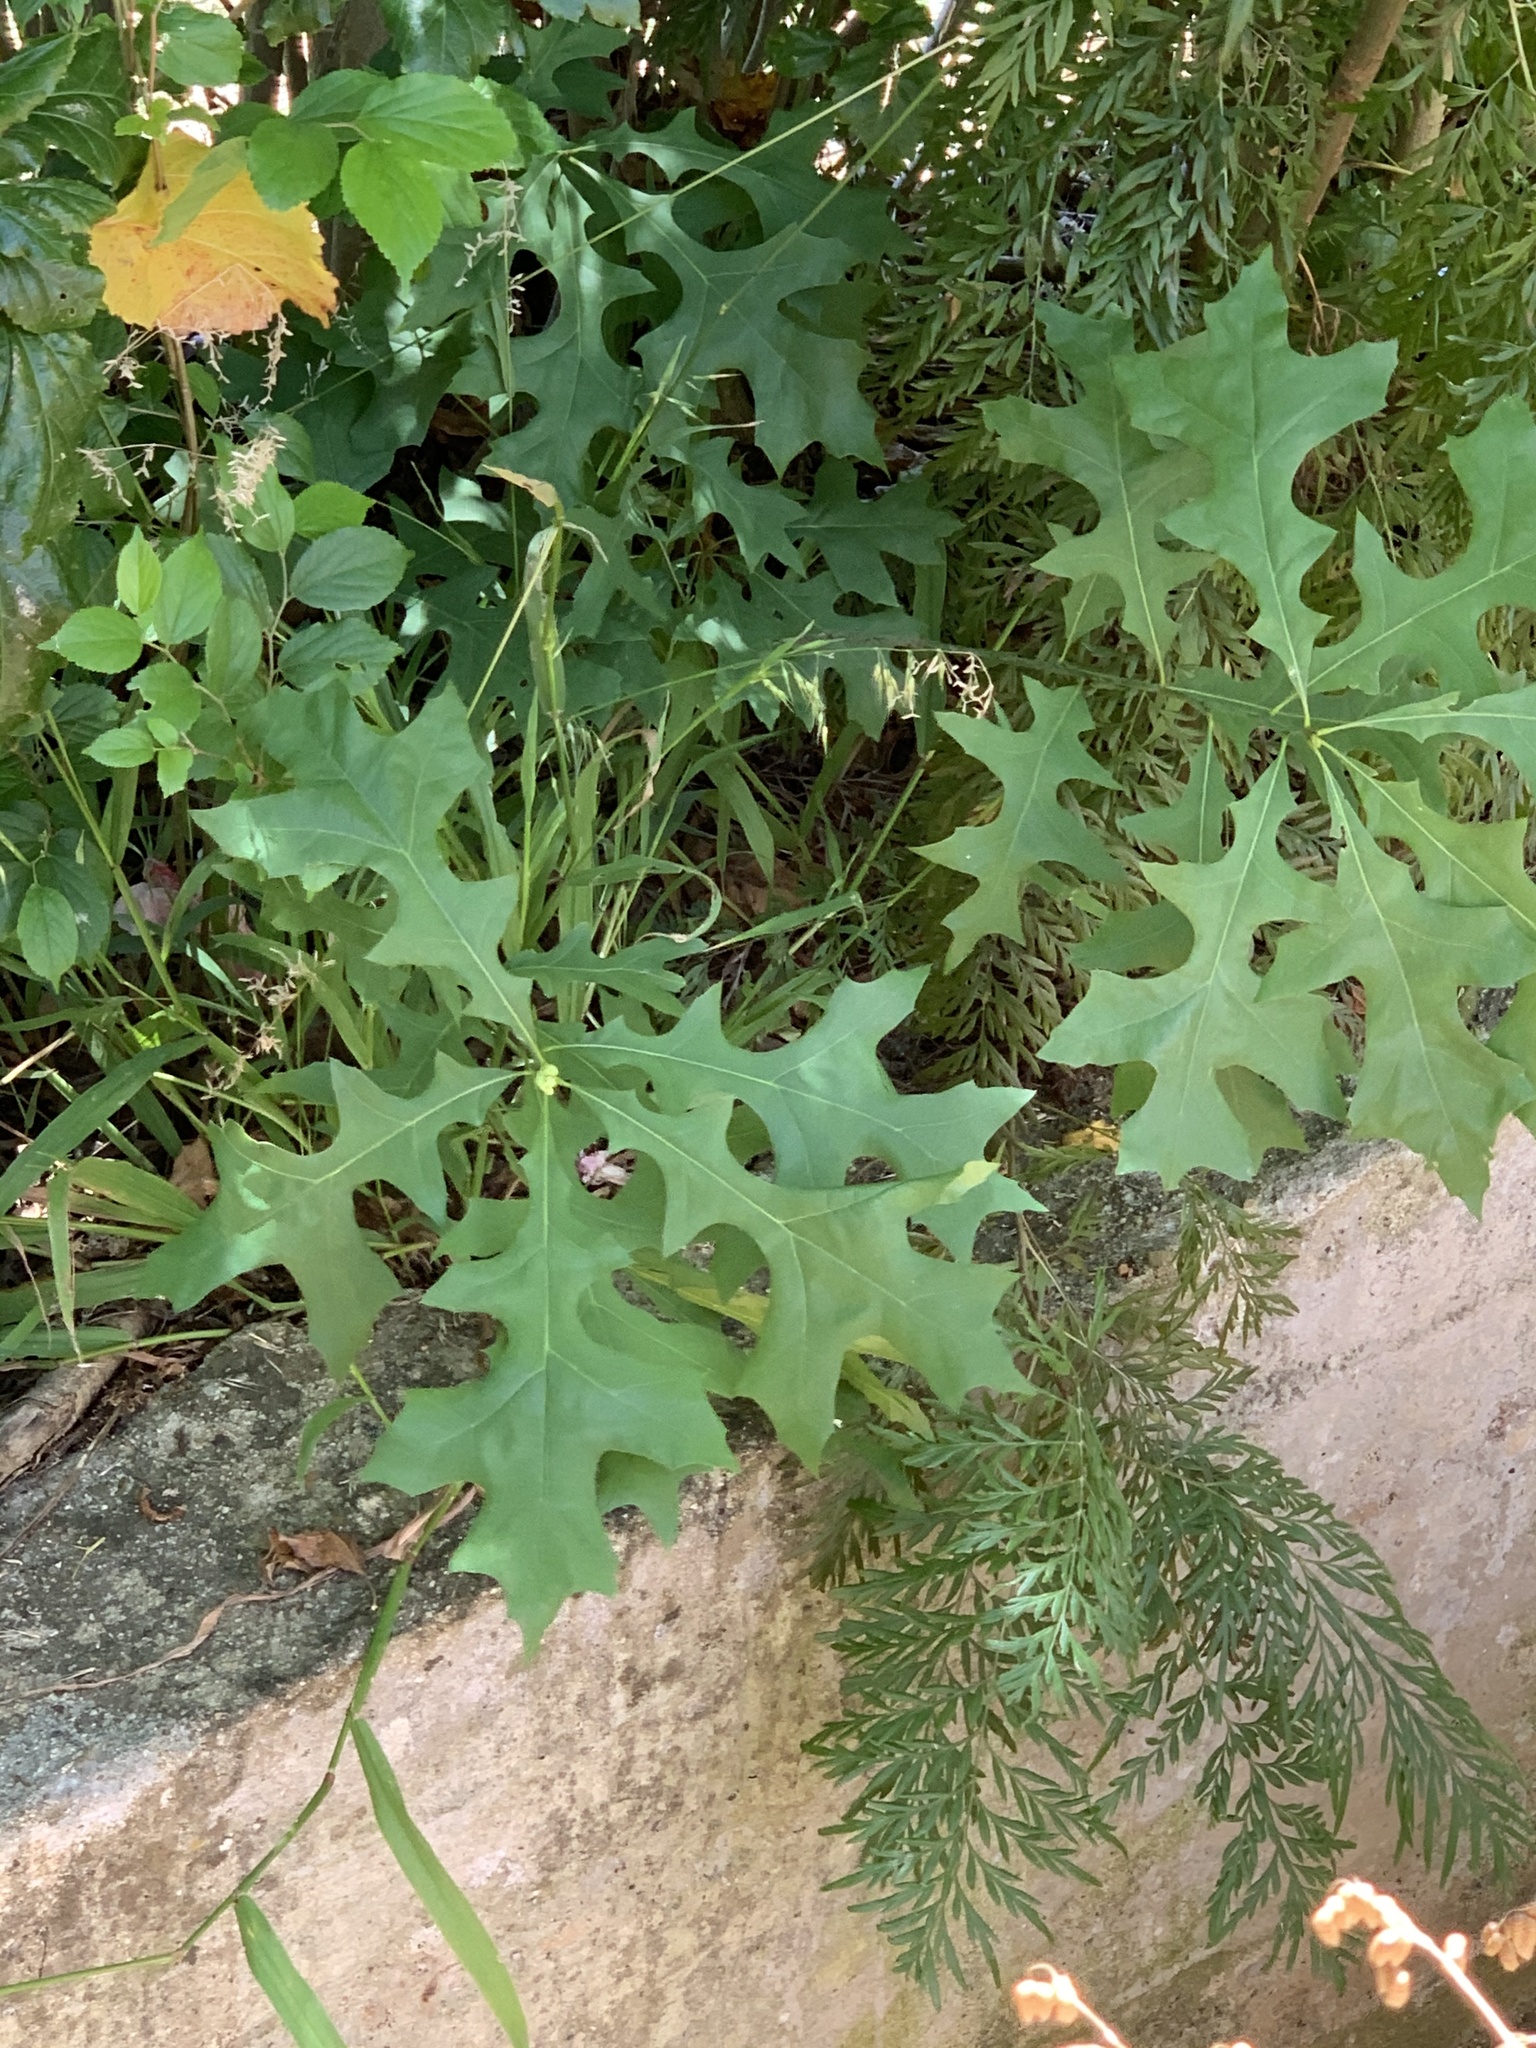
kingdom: Plantae
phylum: Tracheophyta
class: Magnoliopsida
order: Fagales
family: Fagaceae
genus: Quercus
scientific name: Quercus palustris
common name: Pin oak
